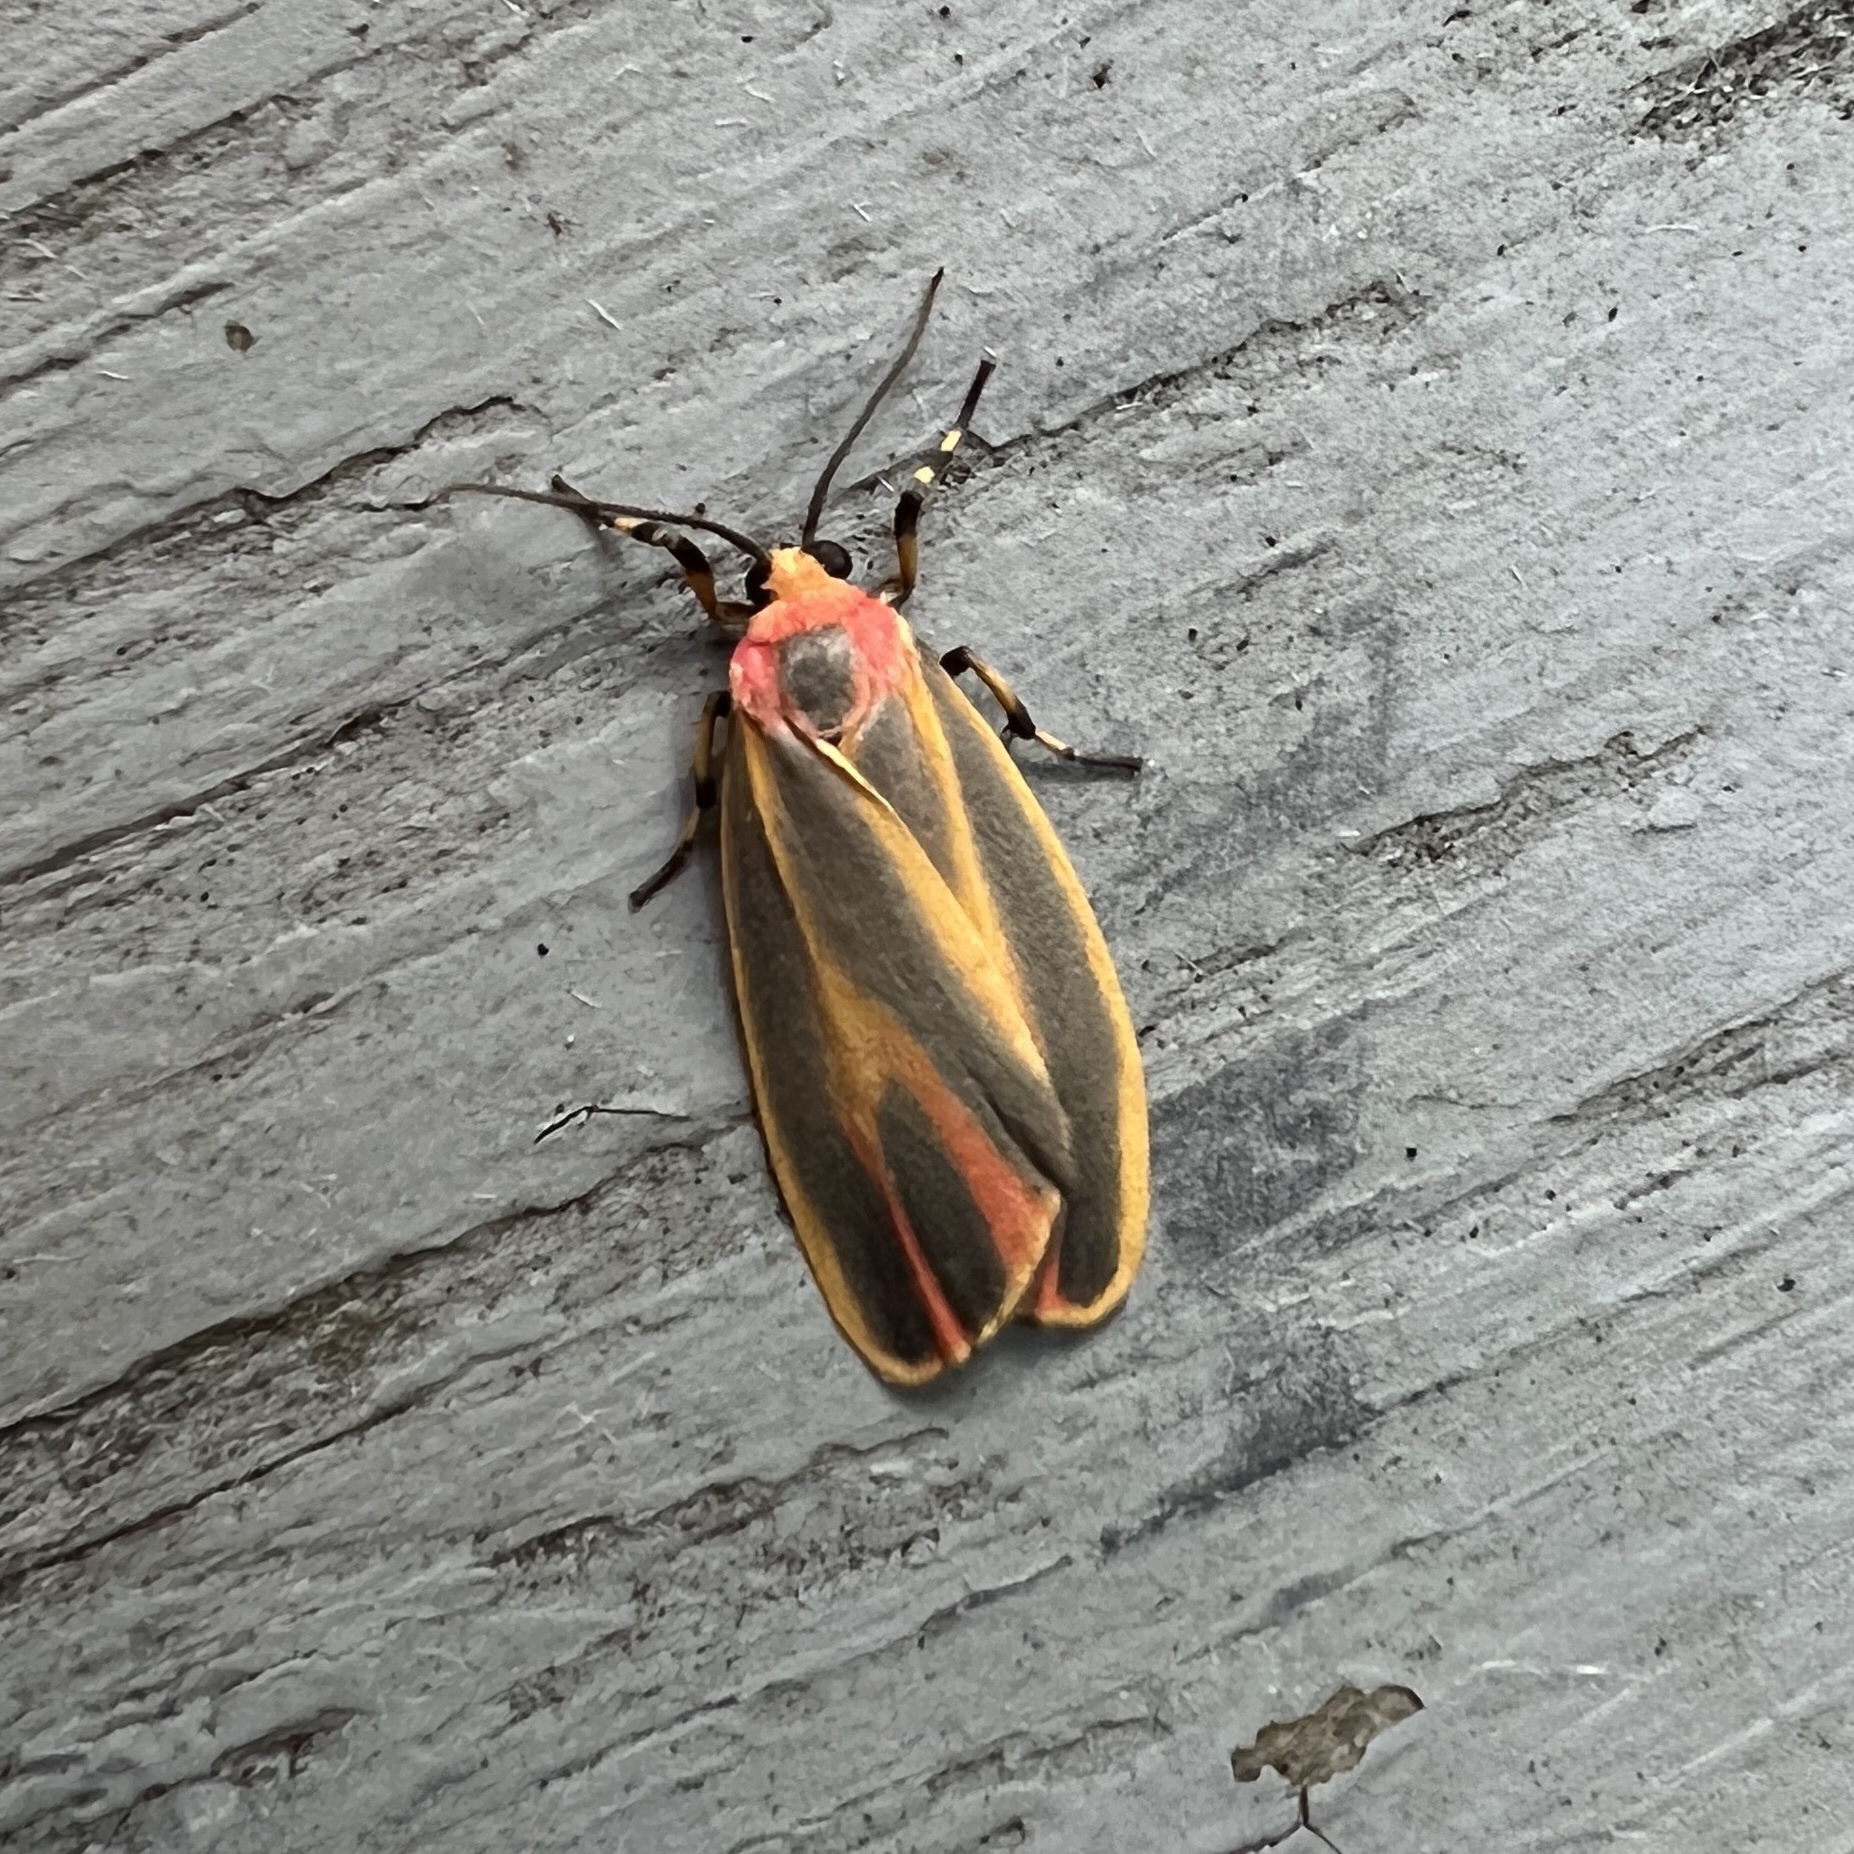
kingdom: Animalia
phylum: Arthropoda
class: Insecta
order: Lepidoptera
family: Erebidae
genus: Hypoprepia
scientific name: Hypoprepia fucosa
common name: Painted lichen moth
